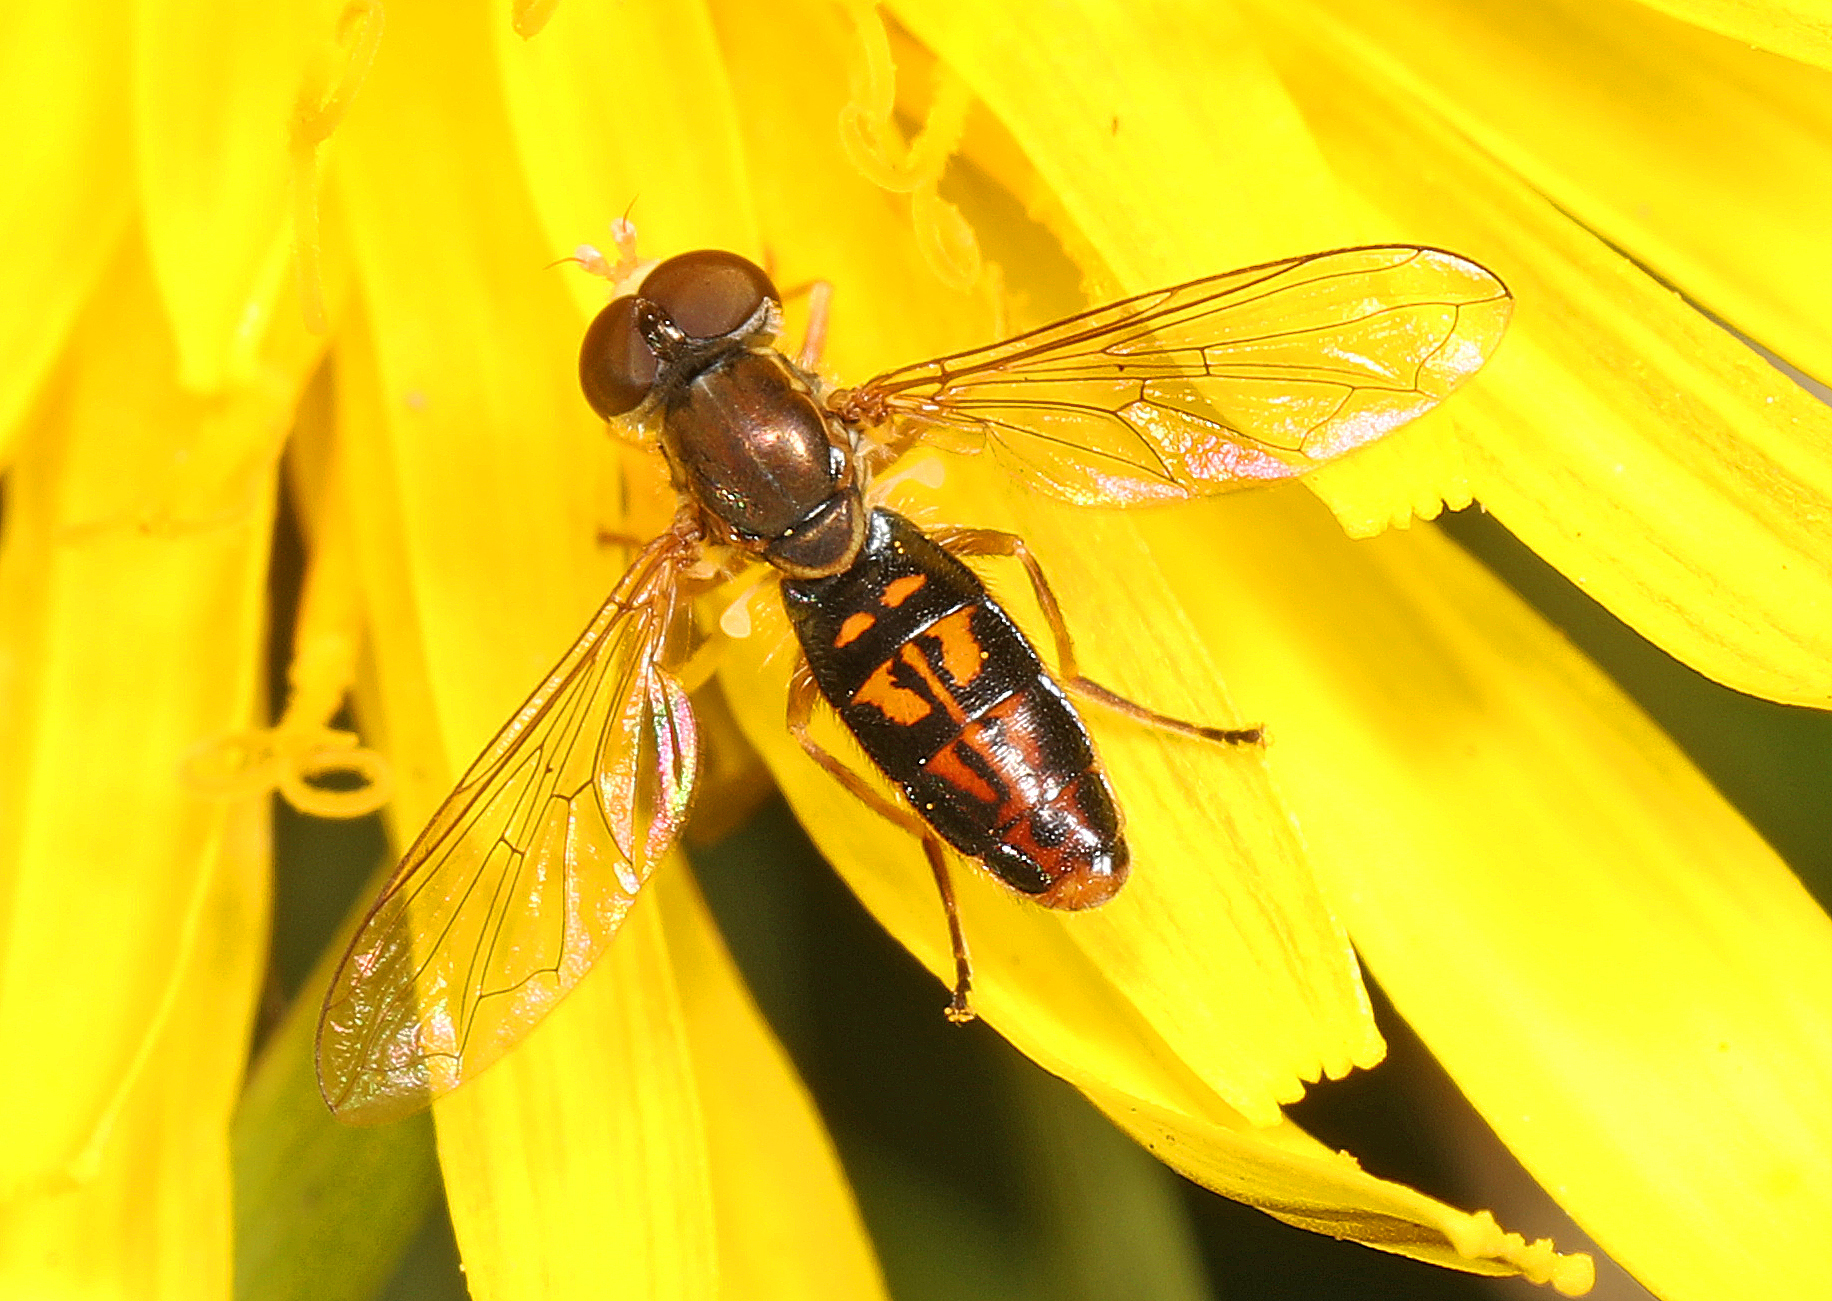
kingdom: Animalia
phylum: Arthropoda
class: Insecta
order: Diptera
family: Syrphidae
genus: Toxomerus
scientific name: Toxomerus marginatus
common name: Syrphid fly
